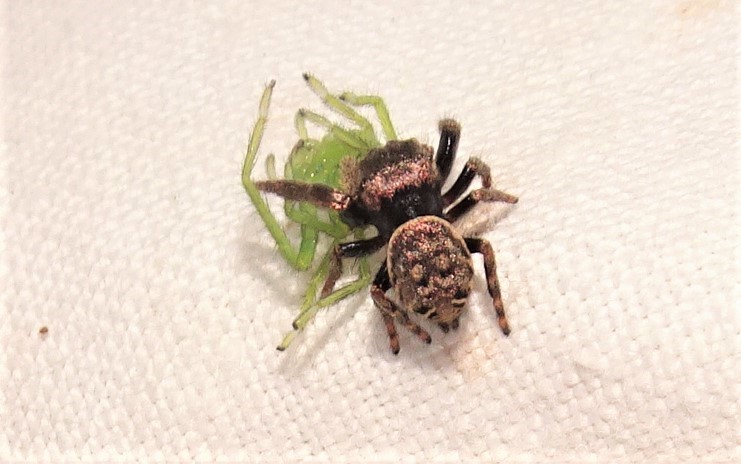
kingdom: Animalia
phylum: Arthropoda
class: Arachnida
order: Araneae
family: Salticidae
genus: Simaetha
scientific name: Simaetha tenuidens
